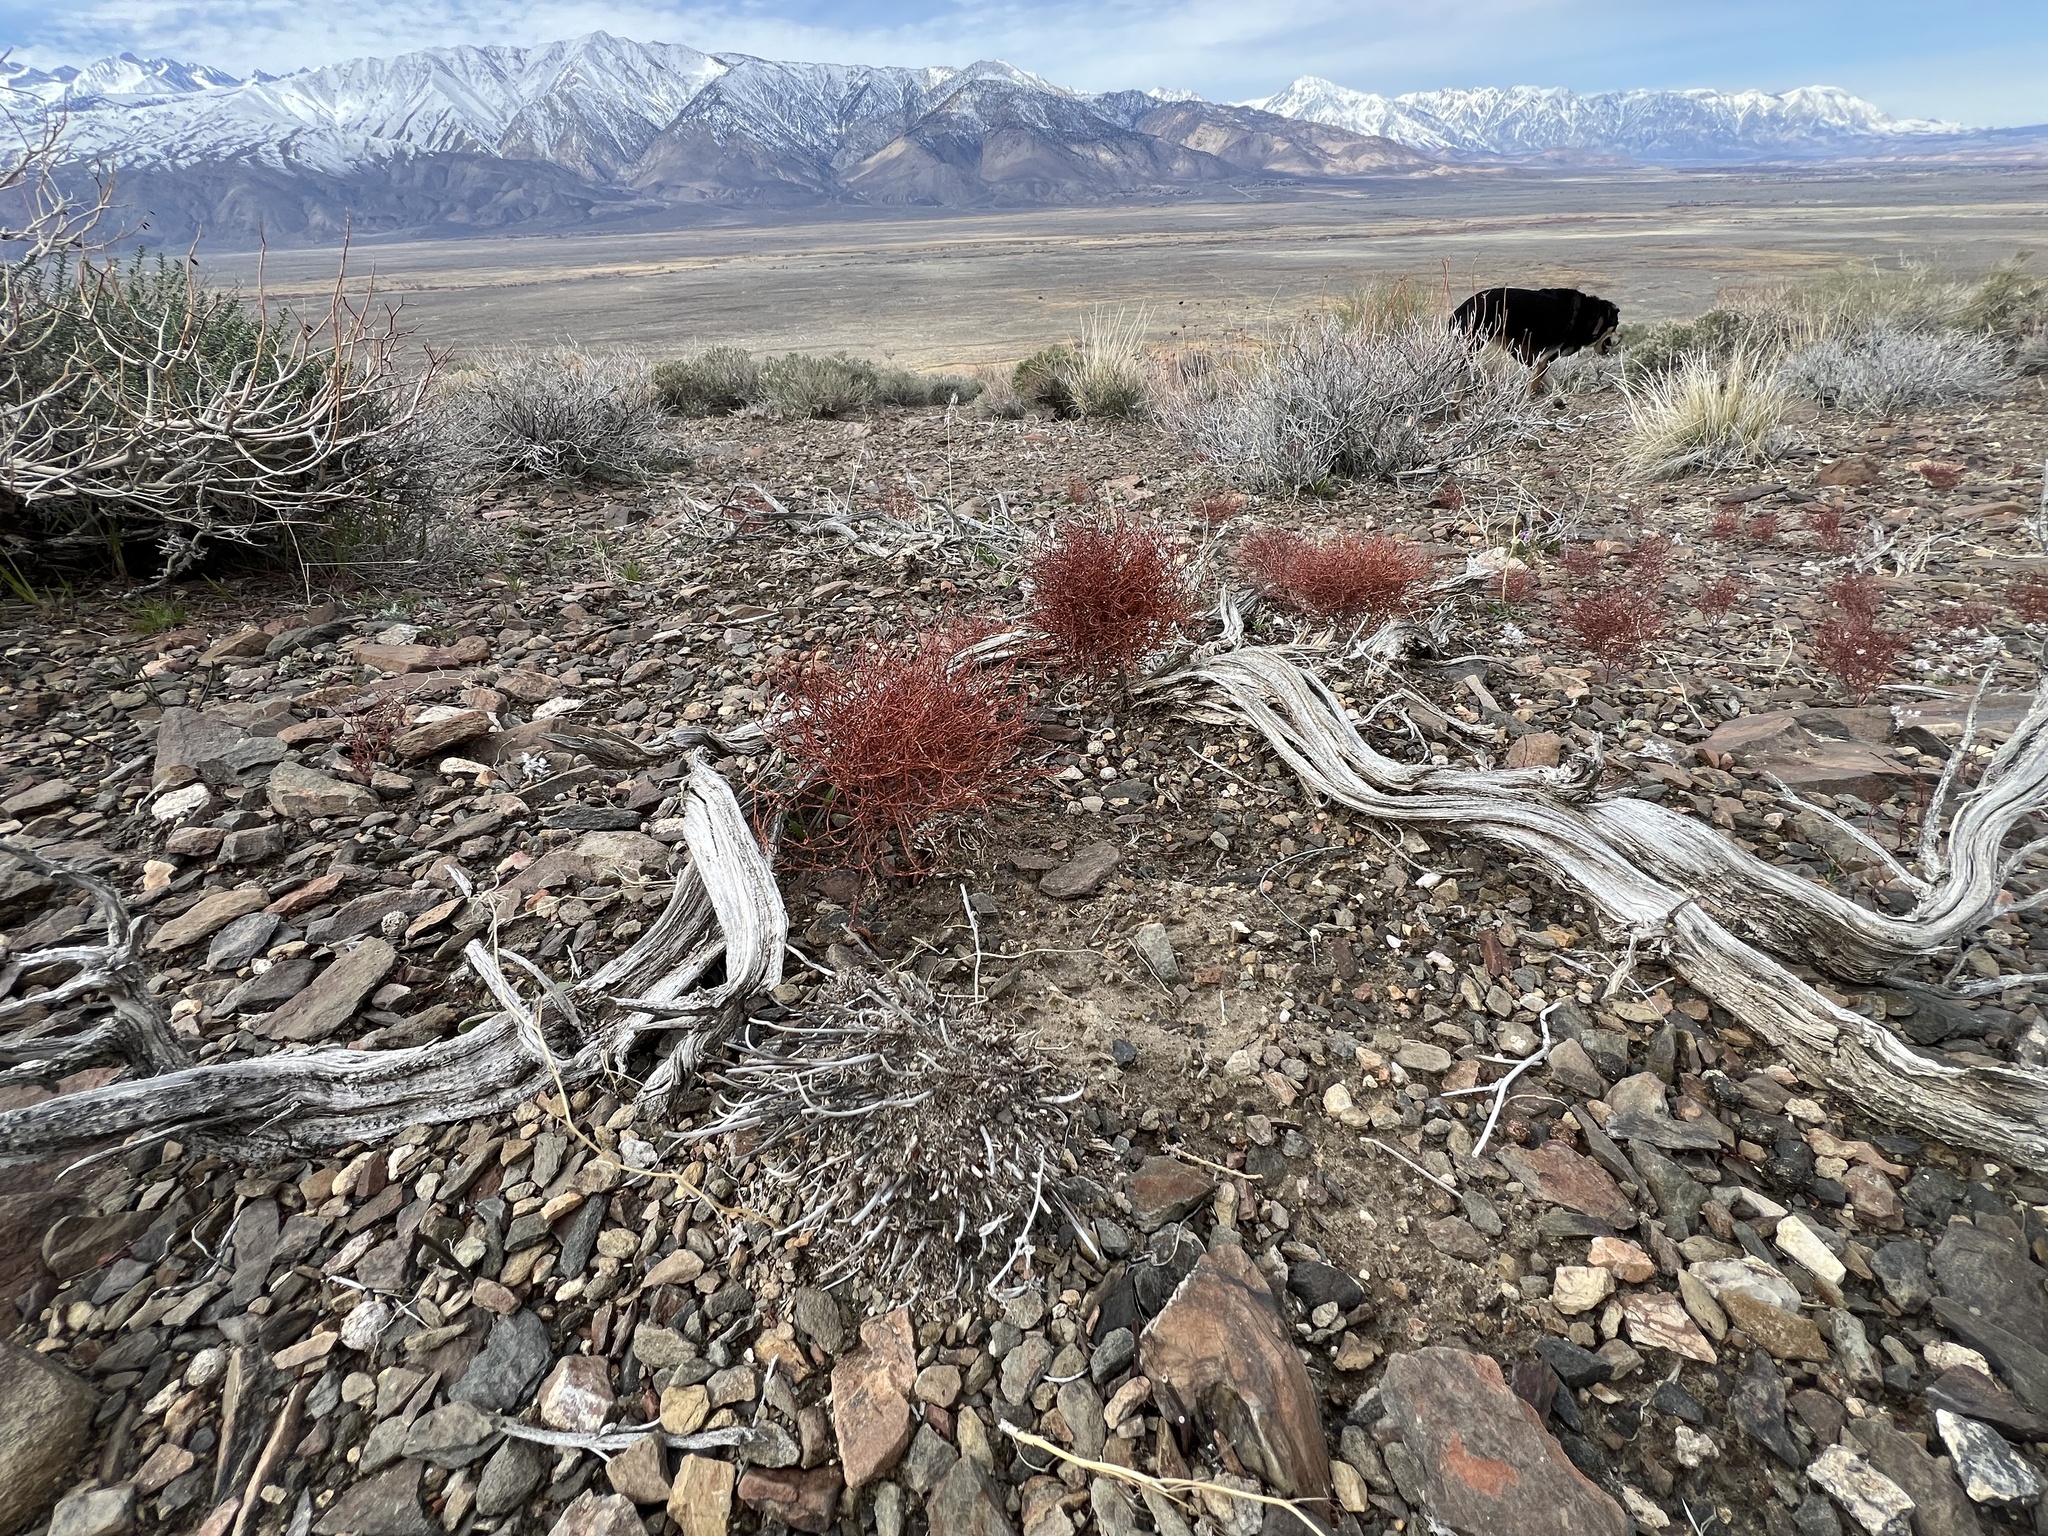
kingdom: Plantae
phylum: Tracheophyta
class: Magnoliopsida
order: Caryophyllales
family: Polygonaceae
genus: Eriogonum
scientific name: Eriogonum nidularium
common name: Bird's-nest wild buckwheat
